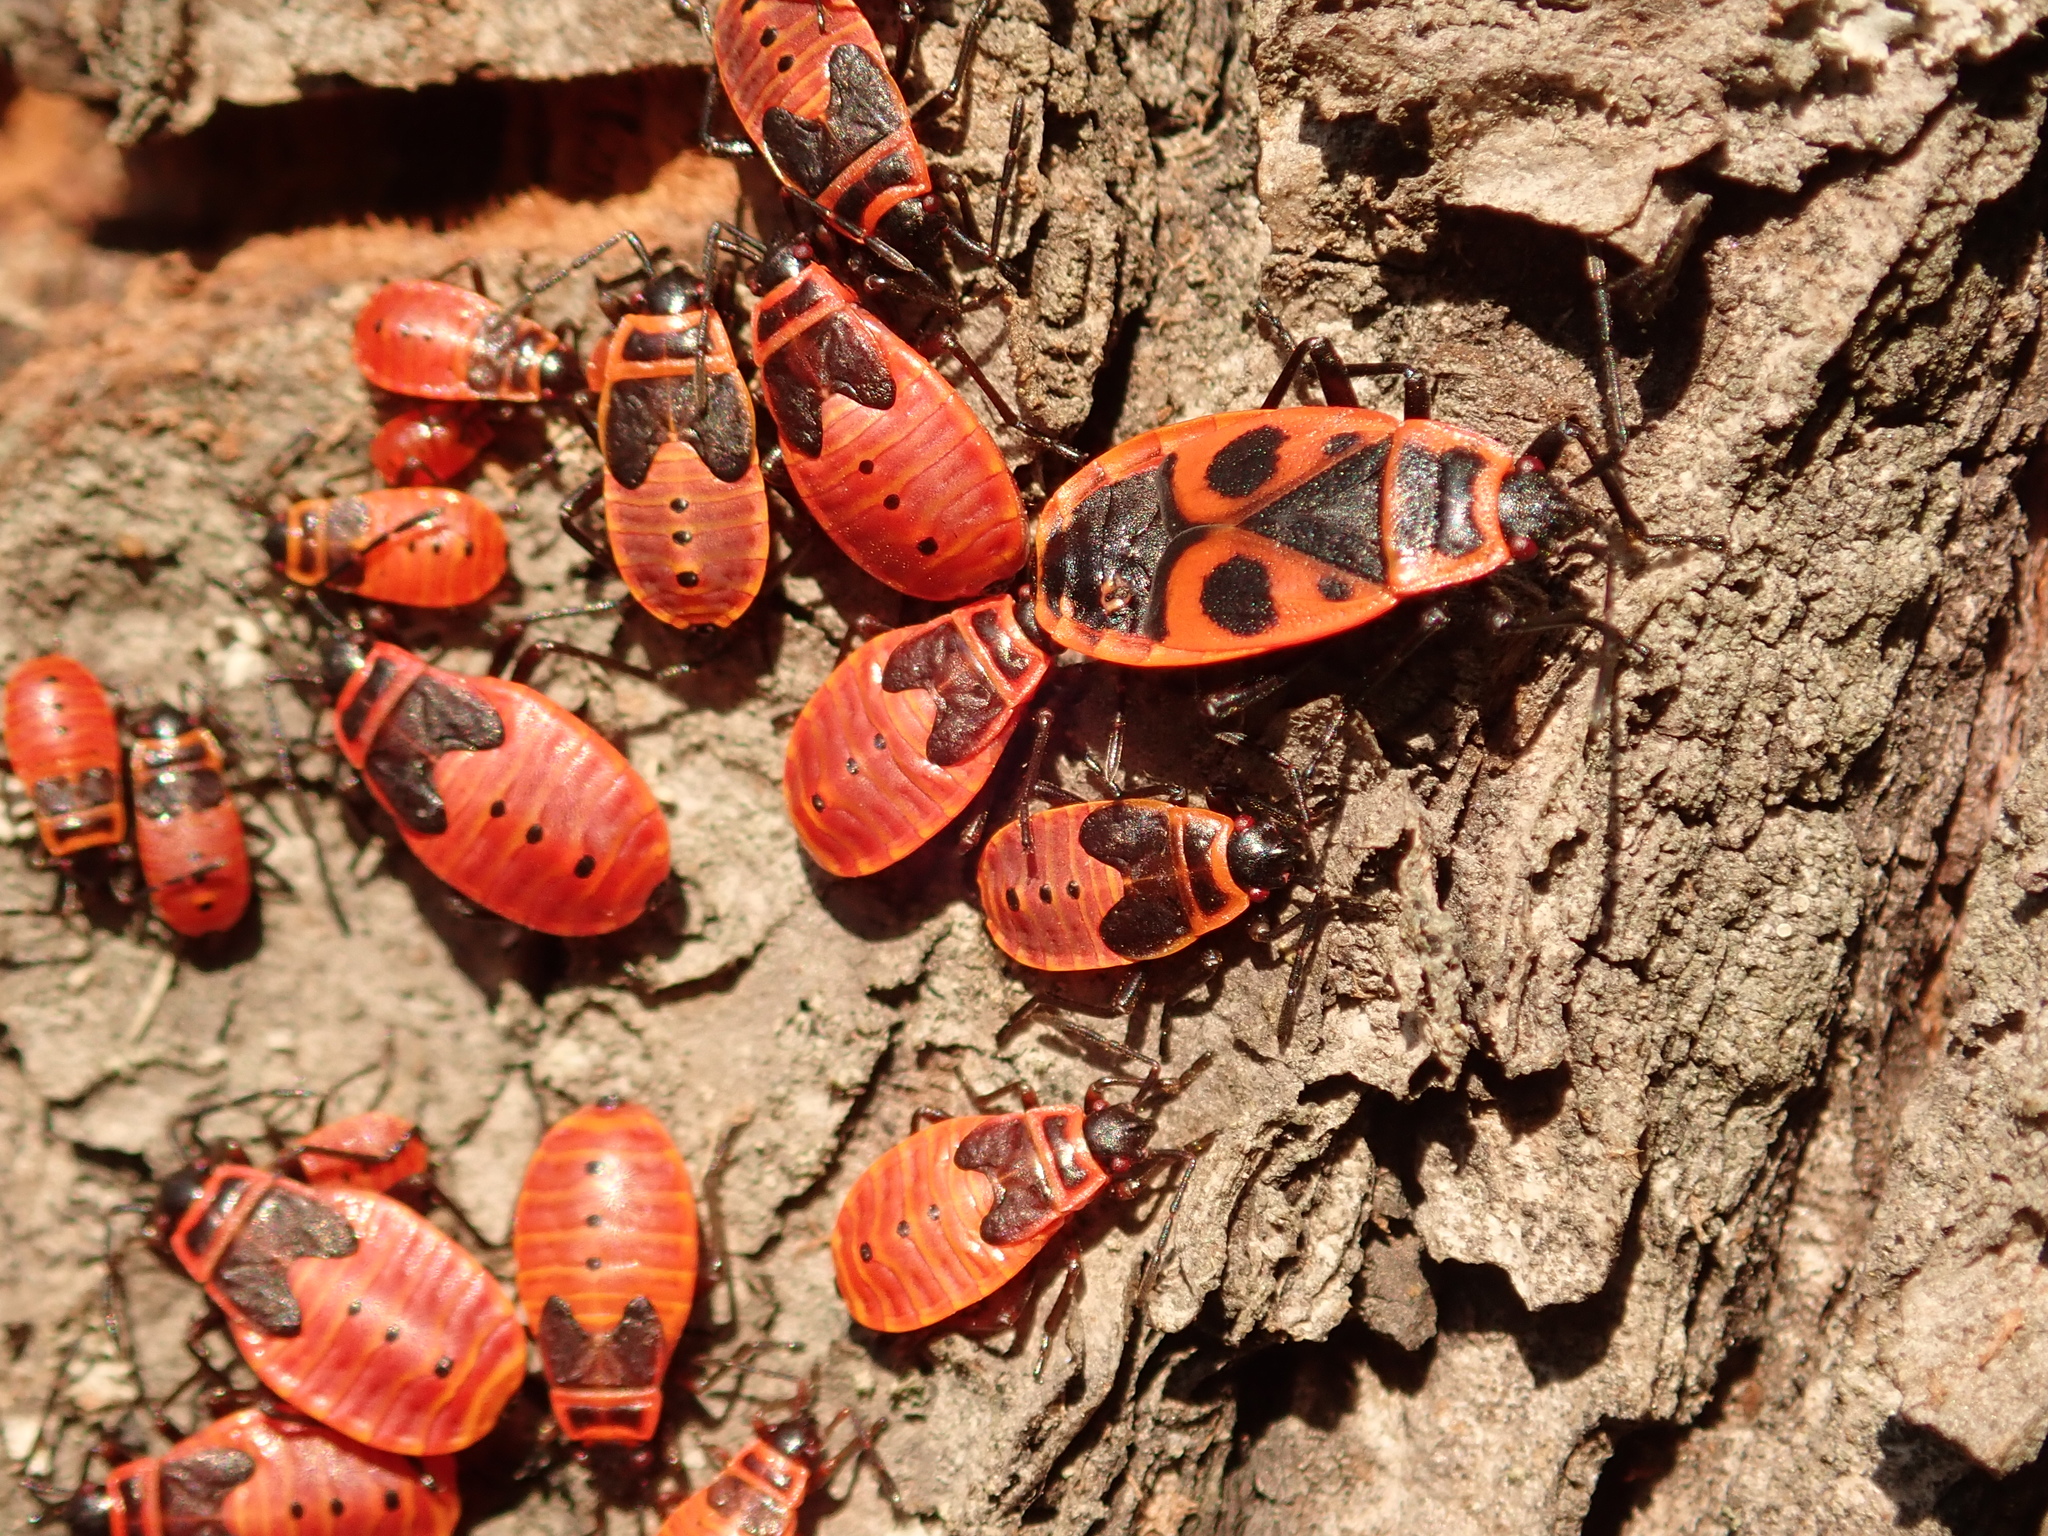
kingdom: Animalia
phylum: Arthropoda
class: Insecta
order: Hemiptera
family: Pyrrhocoridae
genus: Pyrrhocoris
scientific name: Pyrrhocoris apterus
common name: Firebug
